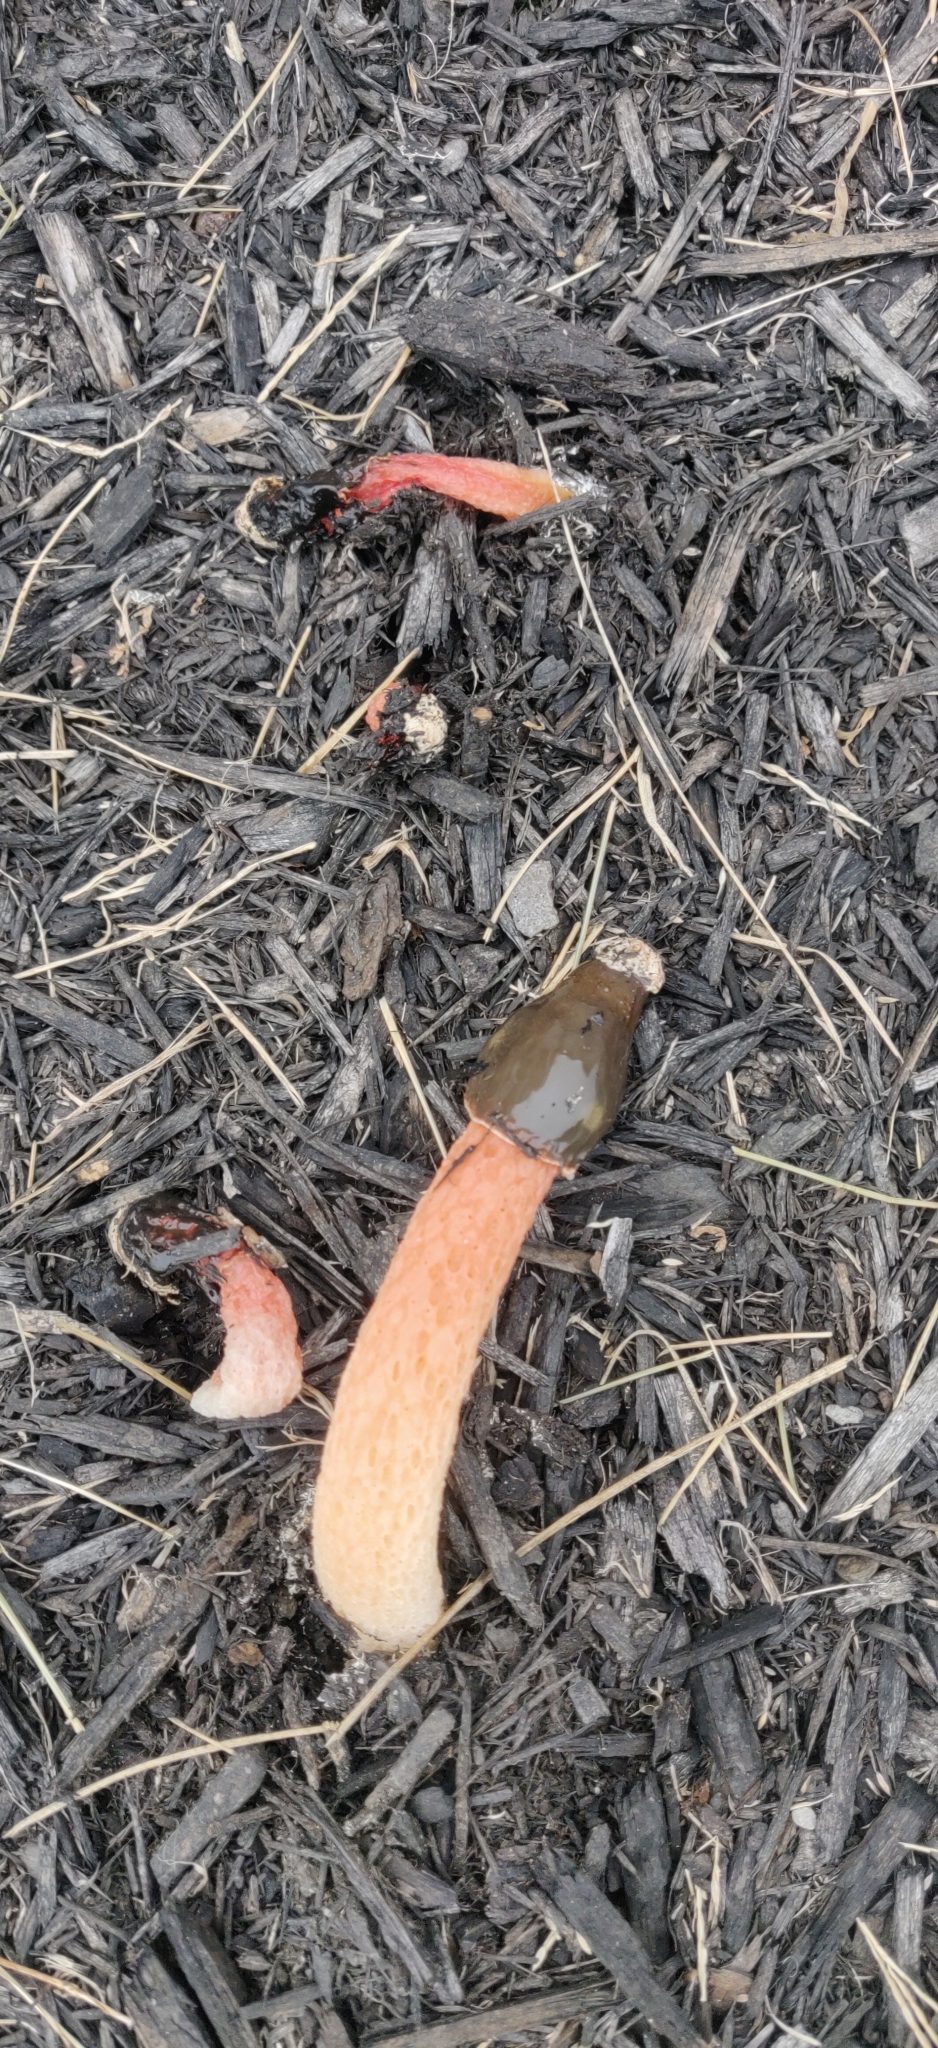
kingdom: Fungi
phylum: Basidiomycota
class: Agaricomycetes
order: Phallales
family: Phallaceae
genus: Phallus
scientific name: Phallus rugulosus
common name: Wrinkly stinkhorn
